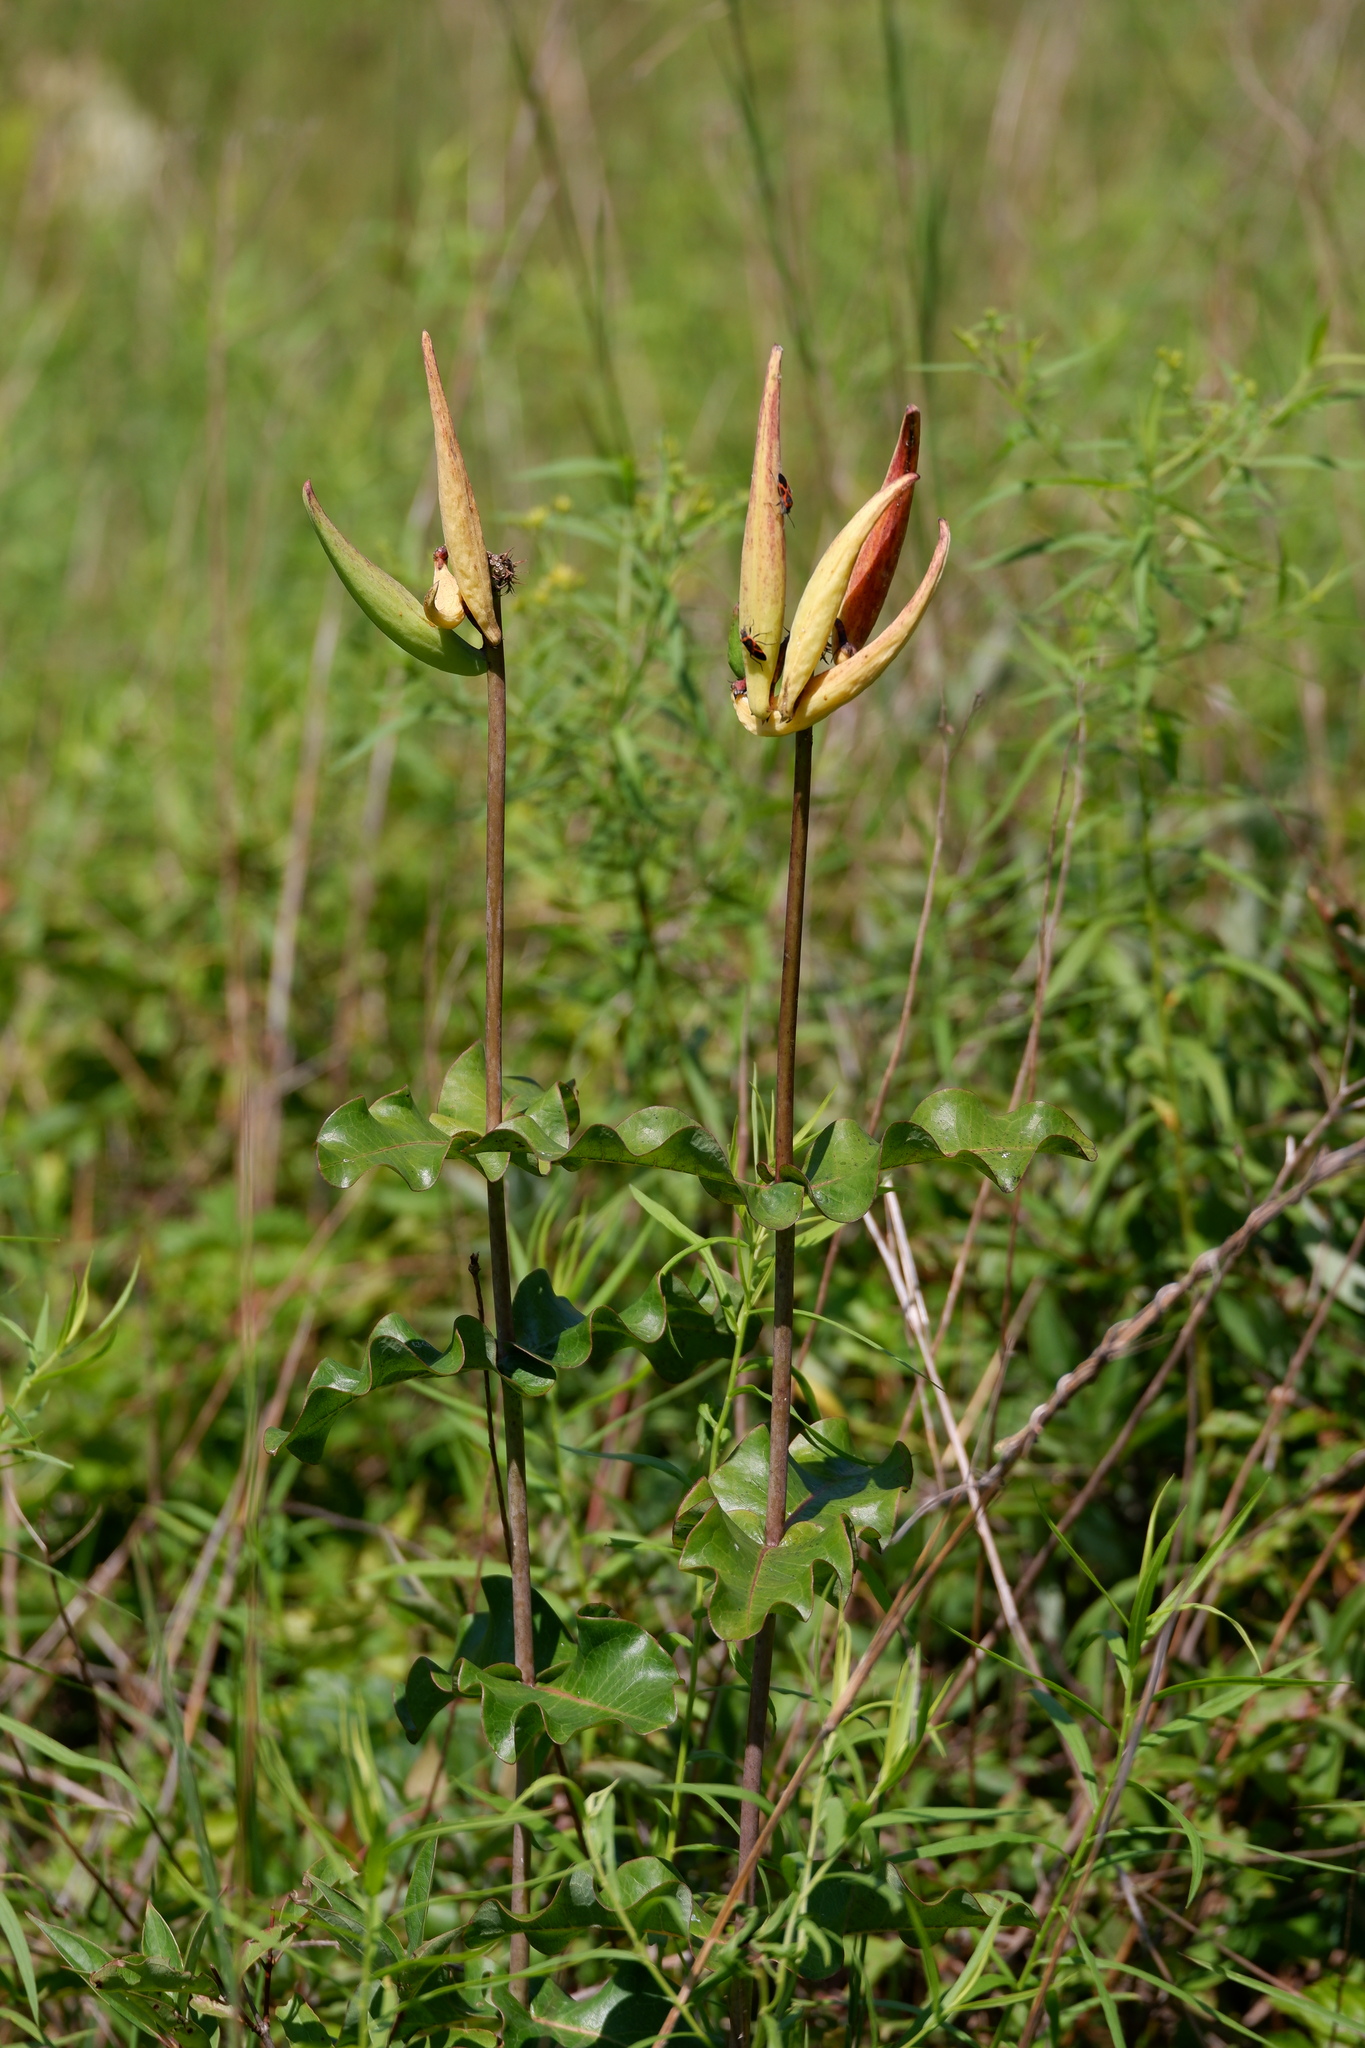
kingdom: Plantae
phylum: Tracheophyta
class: Magnoliopsida
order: Gentianales
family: Apocynaceae
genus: Asclepias
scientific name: Asclepias amplexicaulis
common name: Blunt-leaf milkweed
